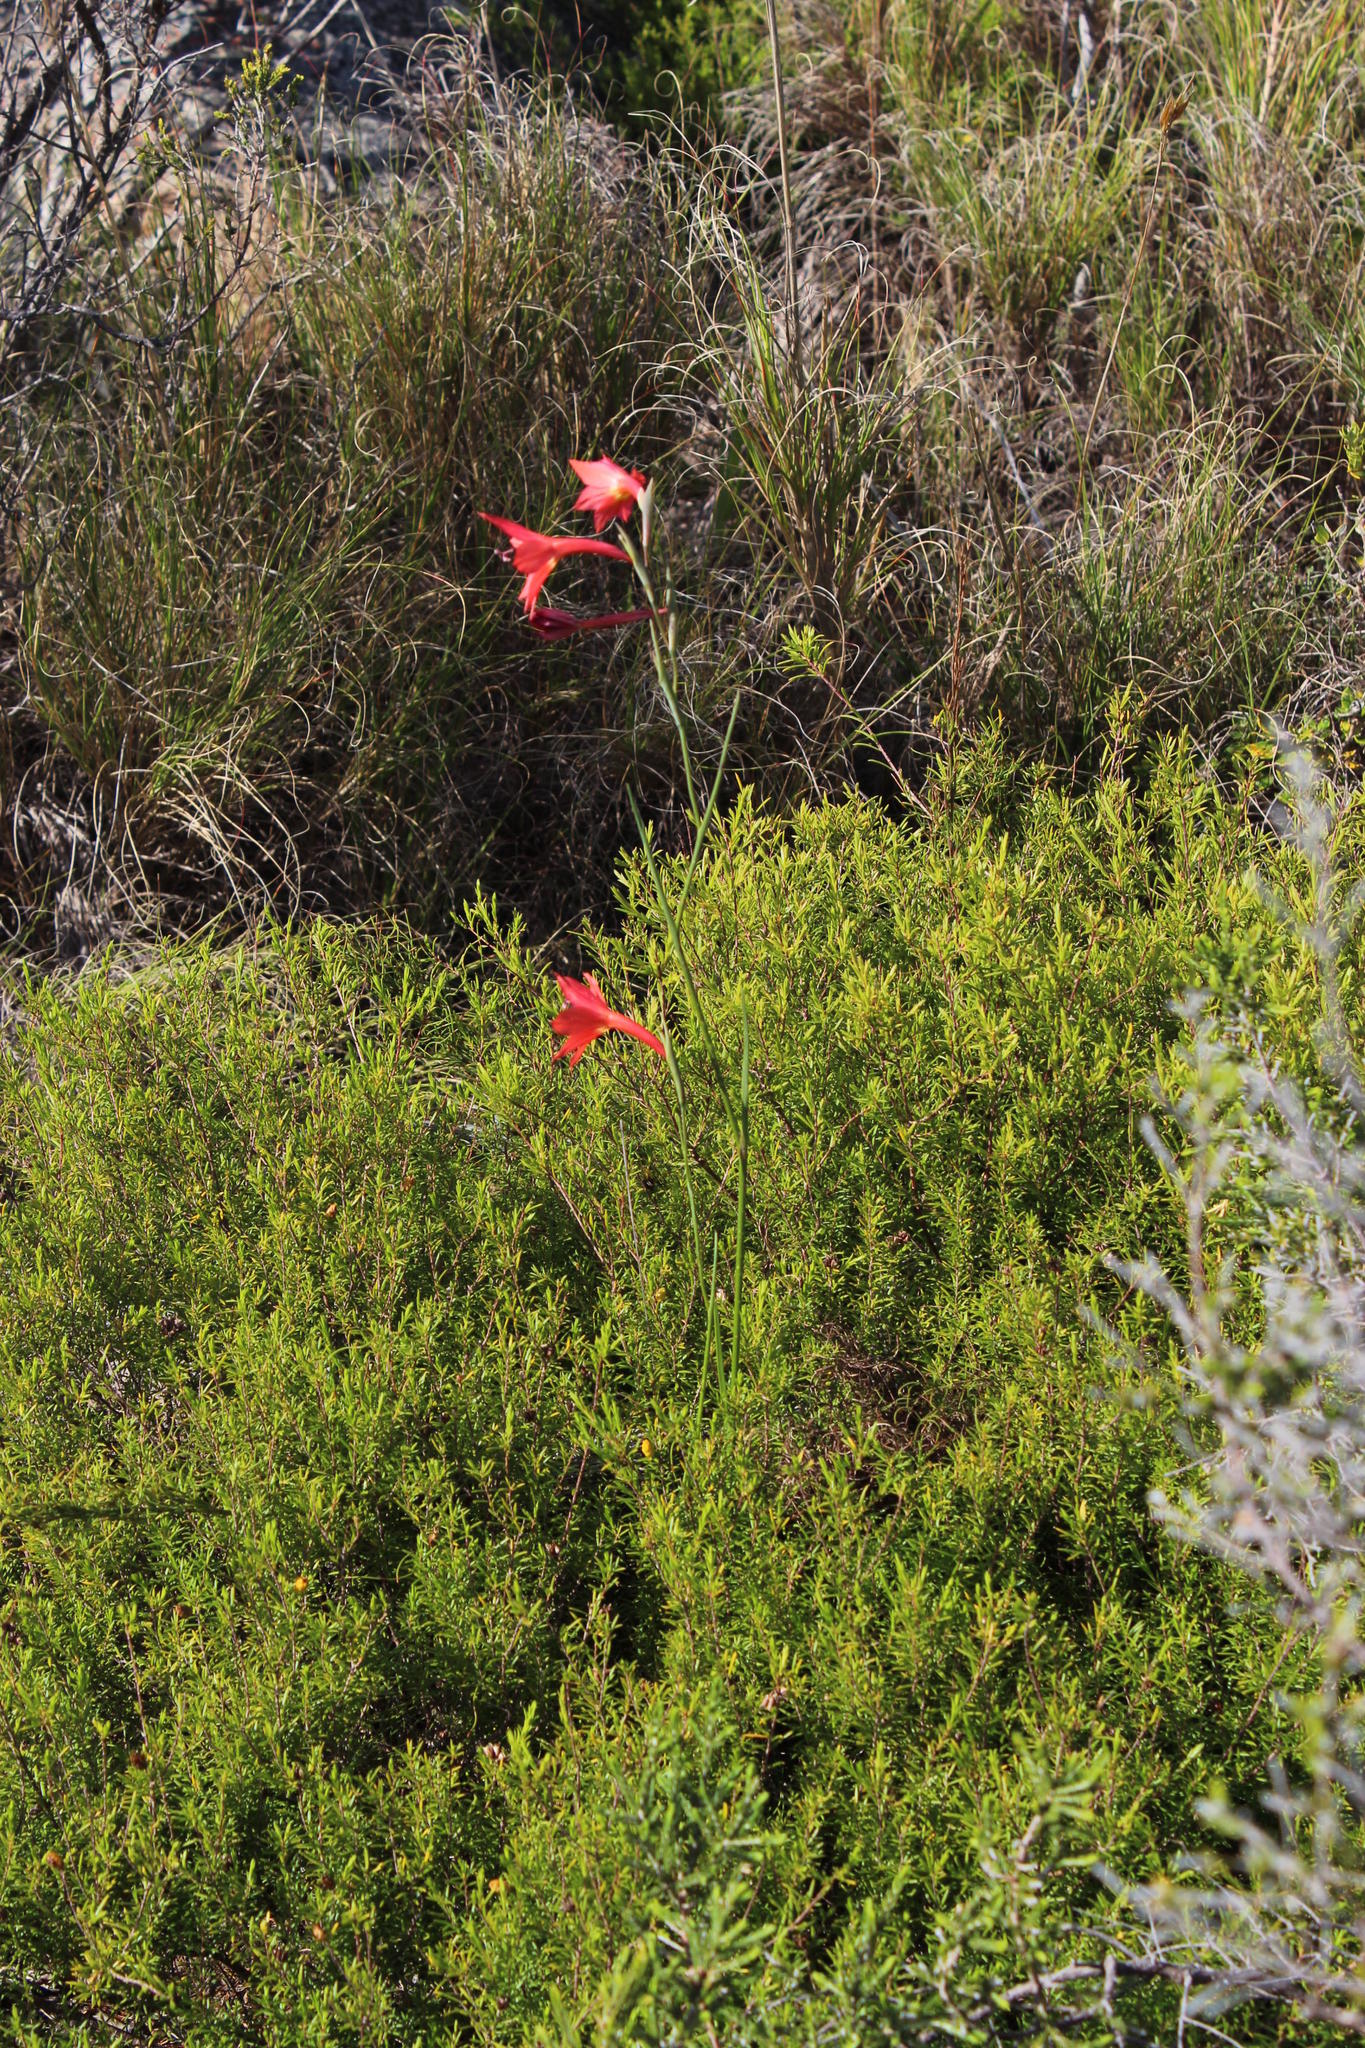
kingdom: Plantae
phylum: Tracheophyta
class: Liliopsida
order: Asparagales
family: Iridaceae
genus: Gladiolus
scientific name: Gladiolus priorii
